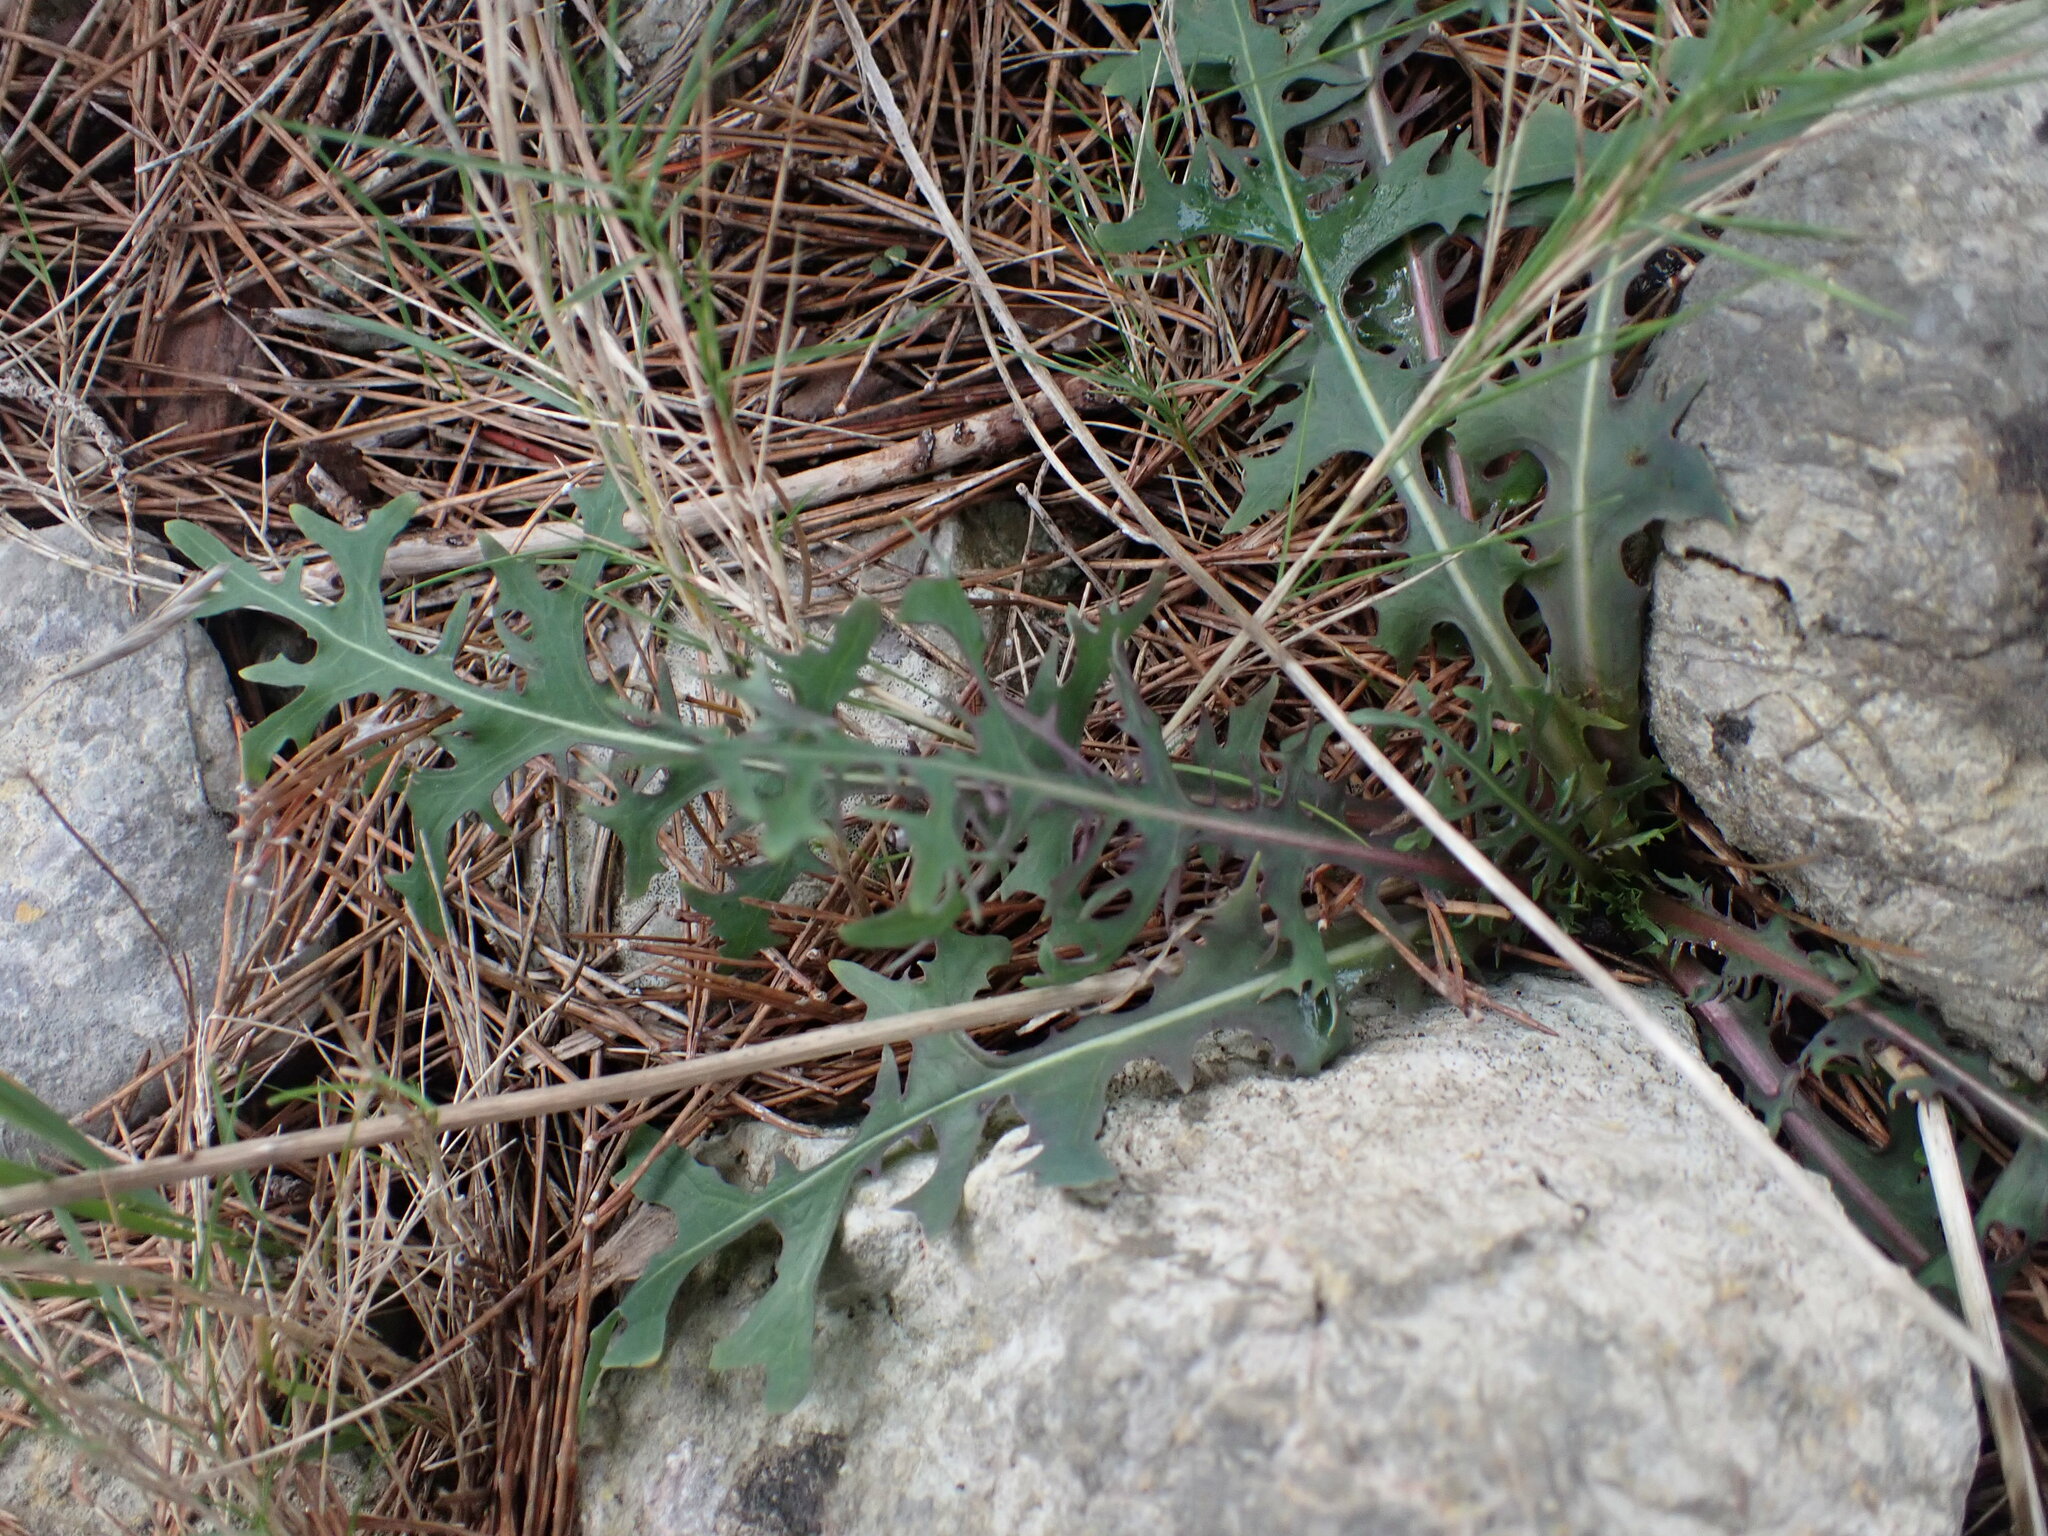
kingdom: Plantae
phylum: Tracheophyta
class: Magnoliopsida
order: Asterales
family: Asteraceae
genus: Lactuca
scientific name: Lactuca perennis
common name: Mountain lettuce
